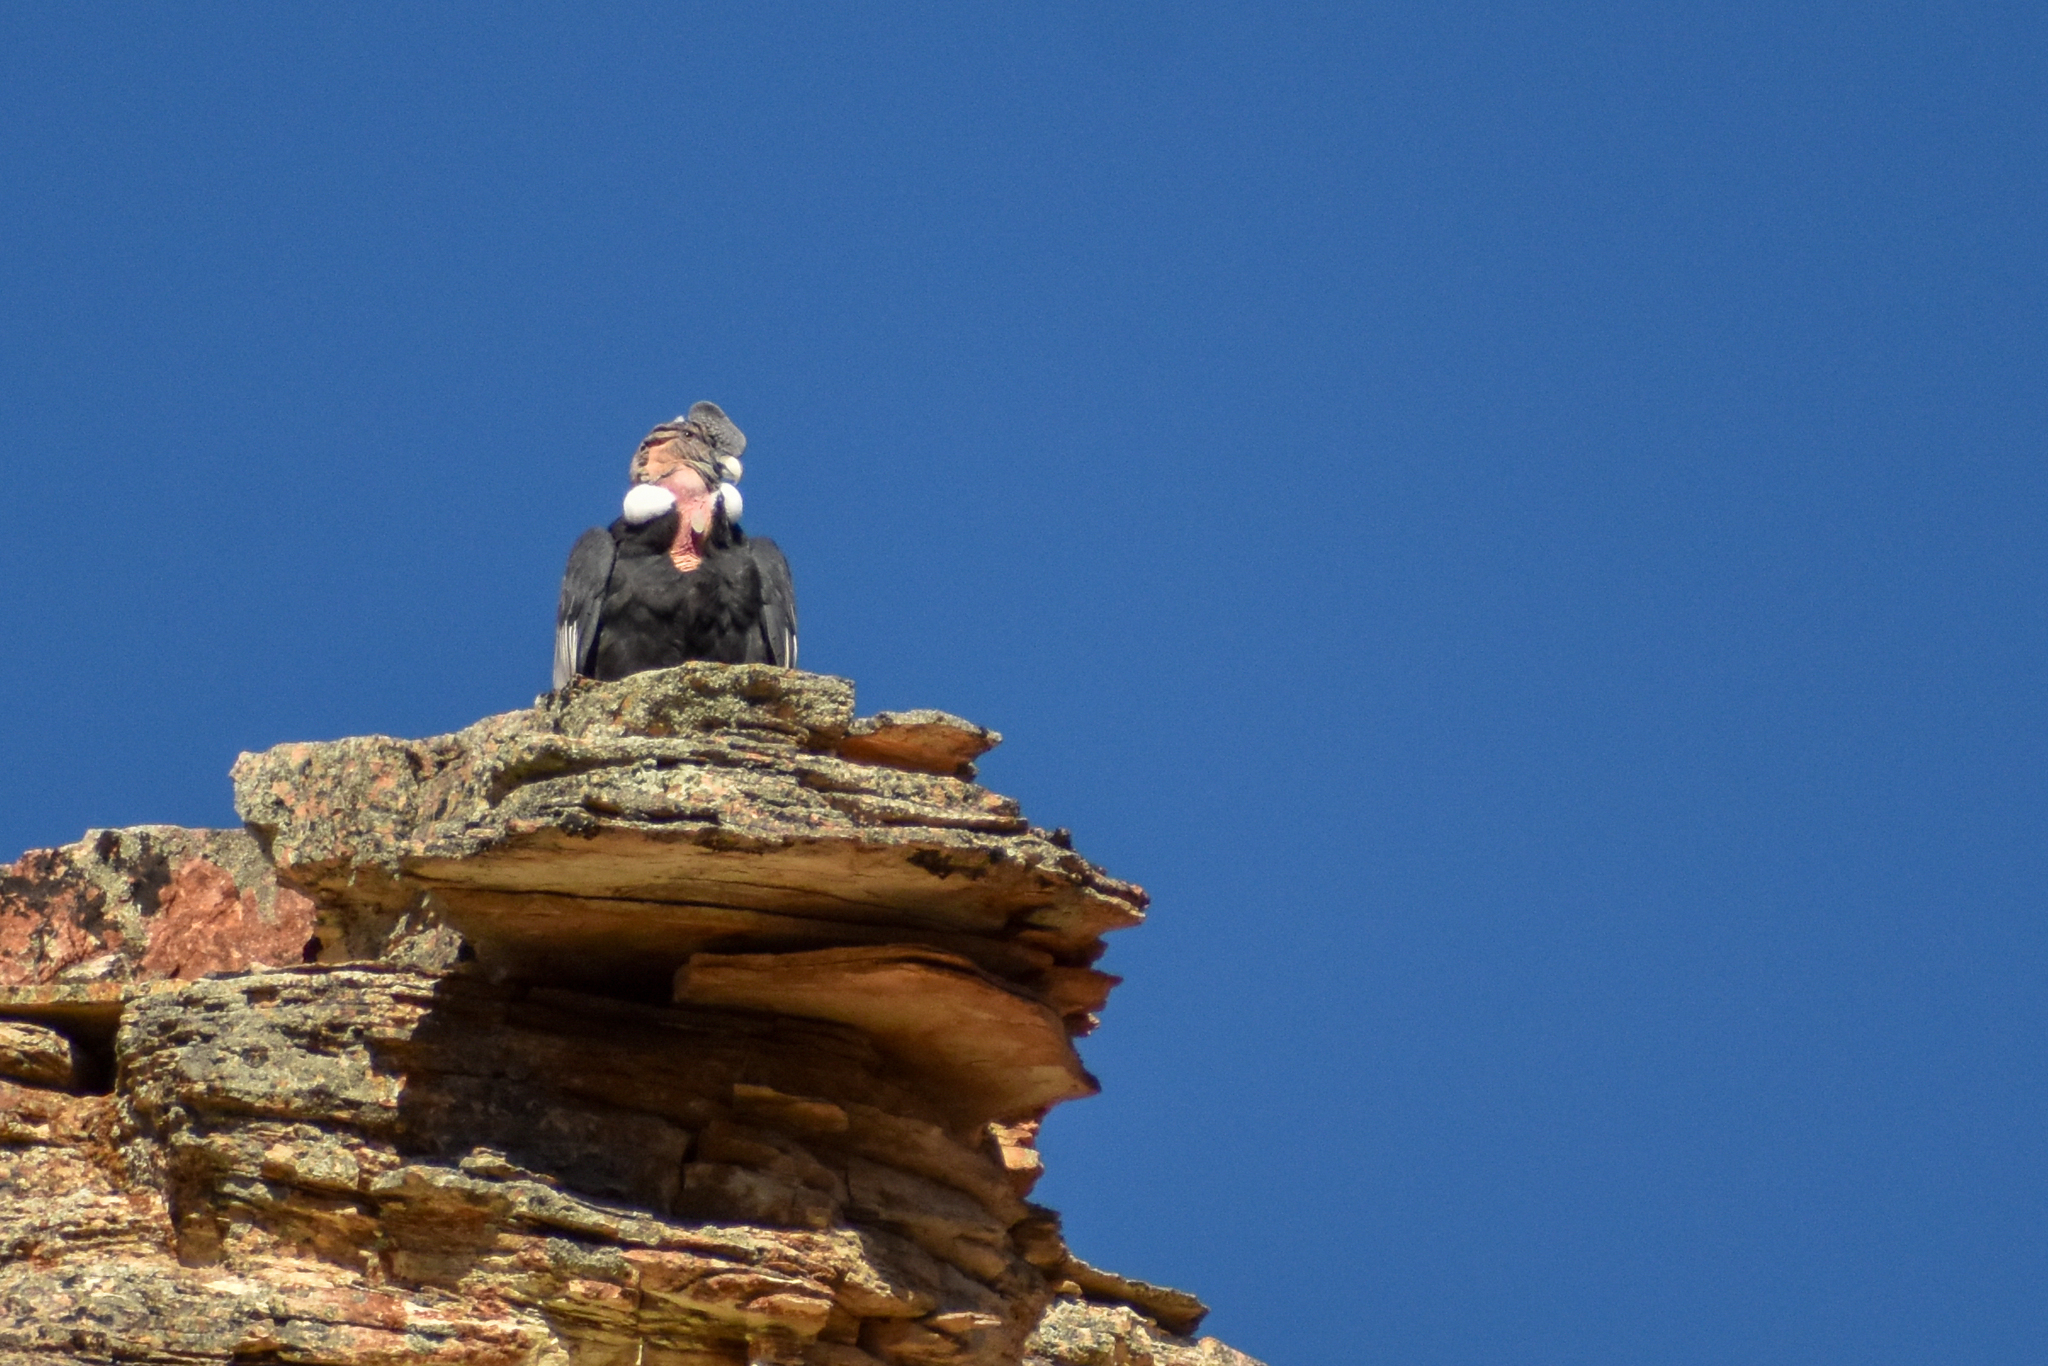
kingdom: Animalia
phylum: Chordata
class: Aves
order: Accipitriformes
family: Cathartidae
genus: Vultur
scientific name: Vultur gryphus
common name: Andean condor
